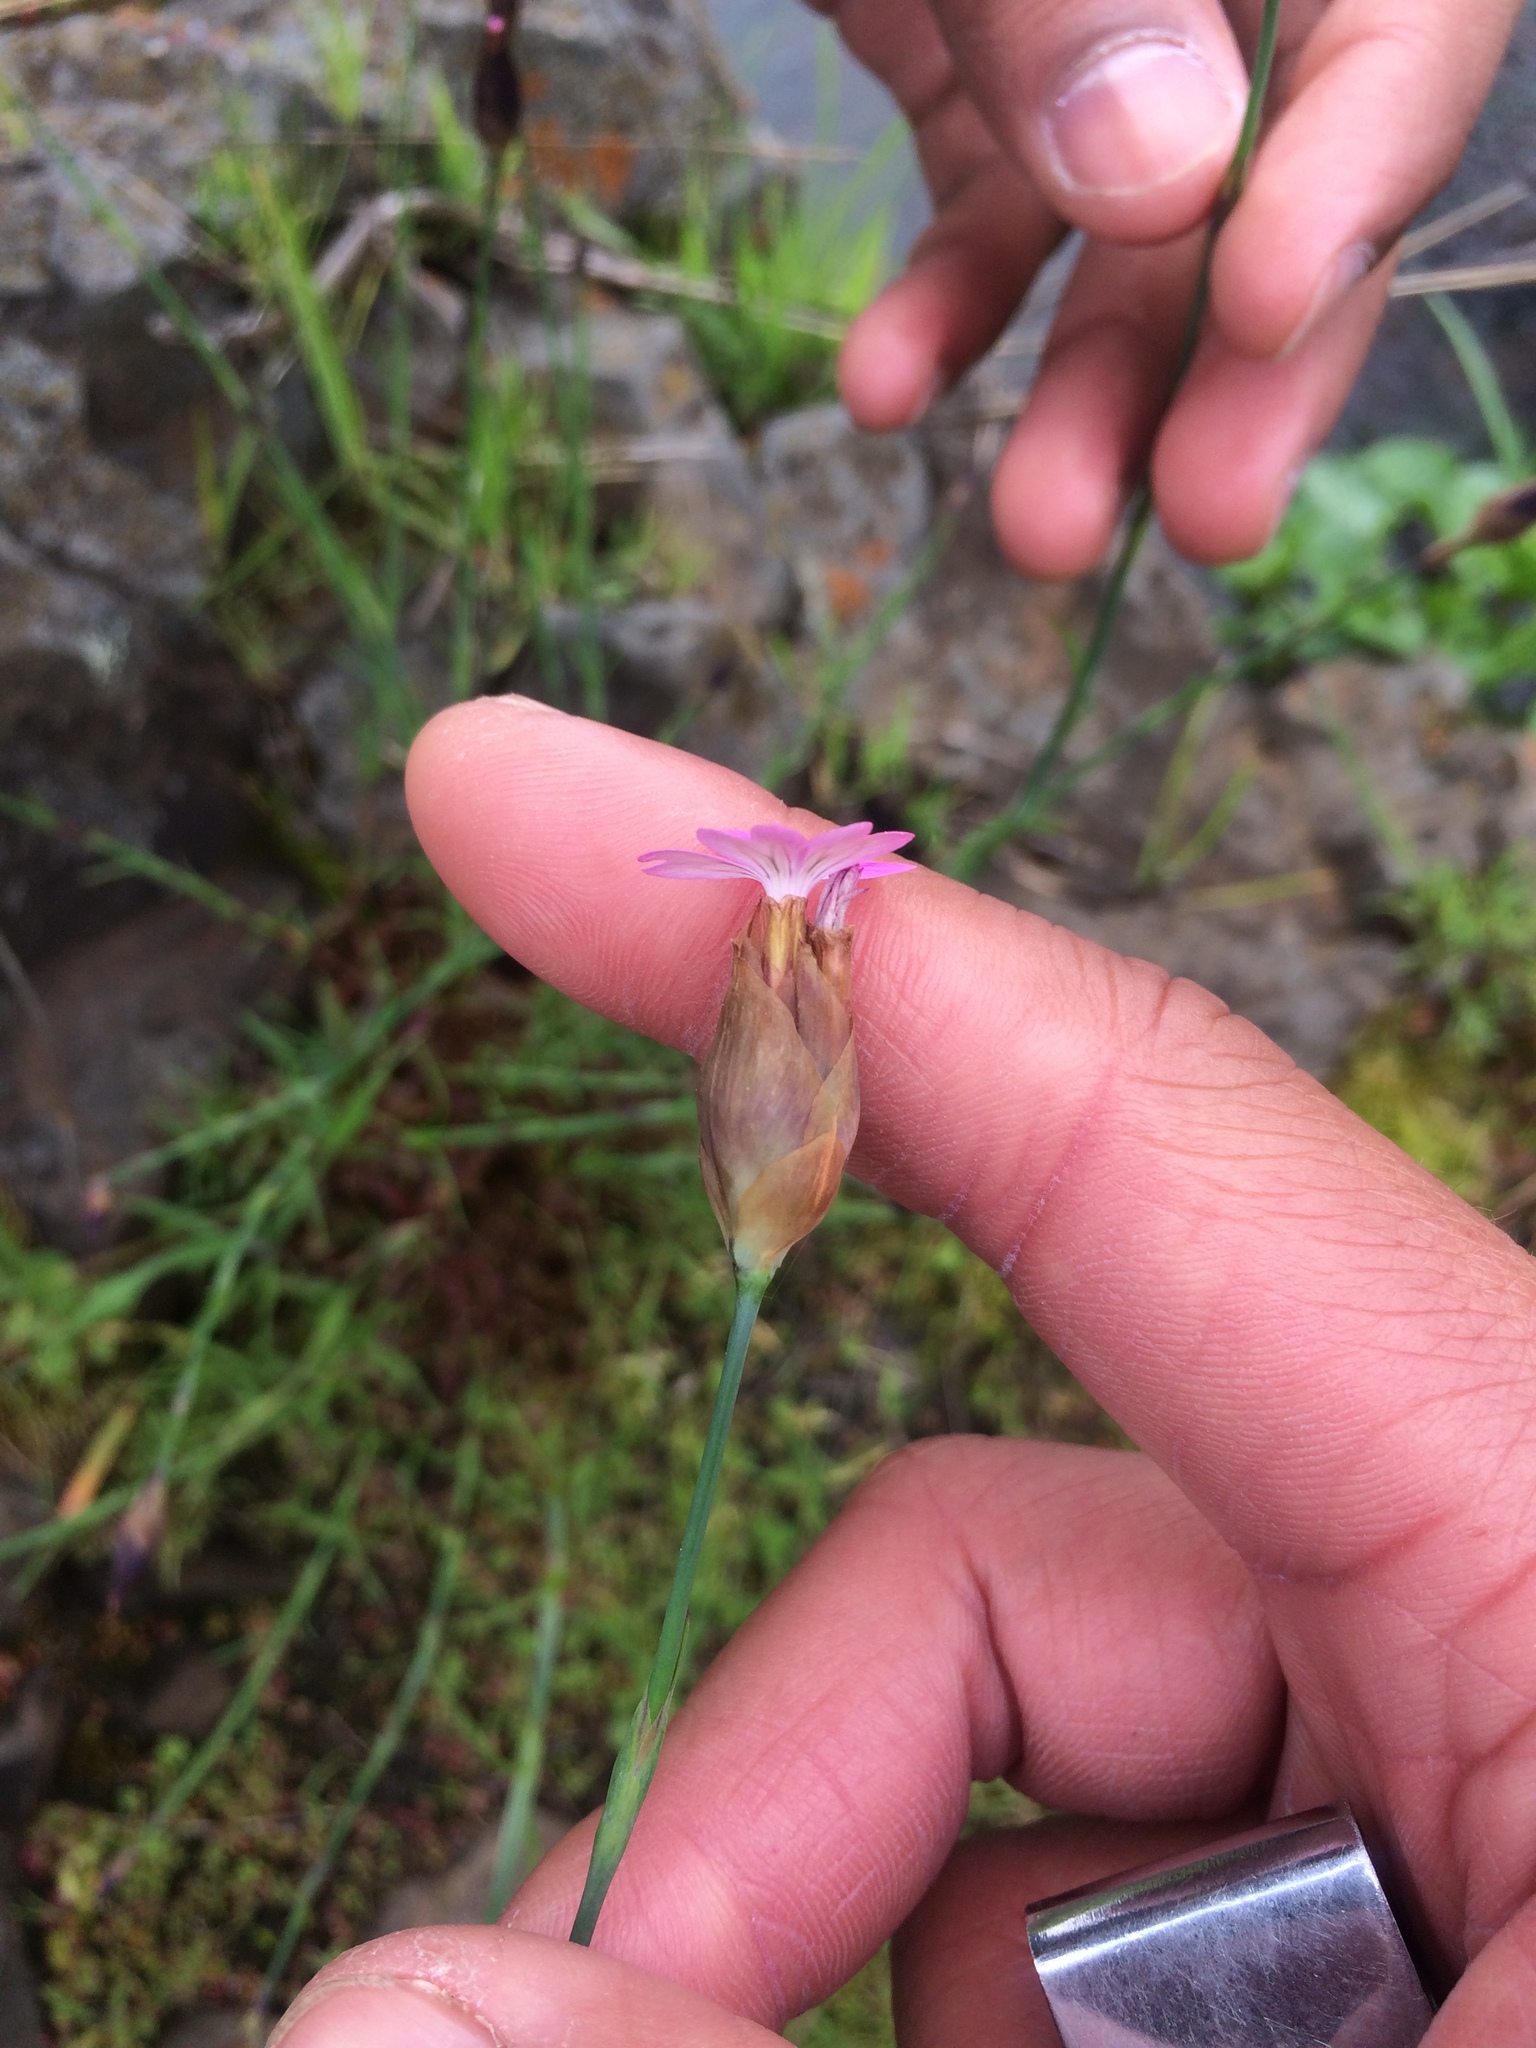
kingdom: Plantae
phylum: Tracheophyta
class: Magnoliopsida
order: Caryophyllales
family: Caryophyllaceae
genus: Petrorhagia
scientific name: Petrorhagia dubia
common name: Hairypink
